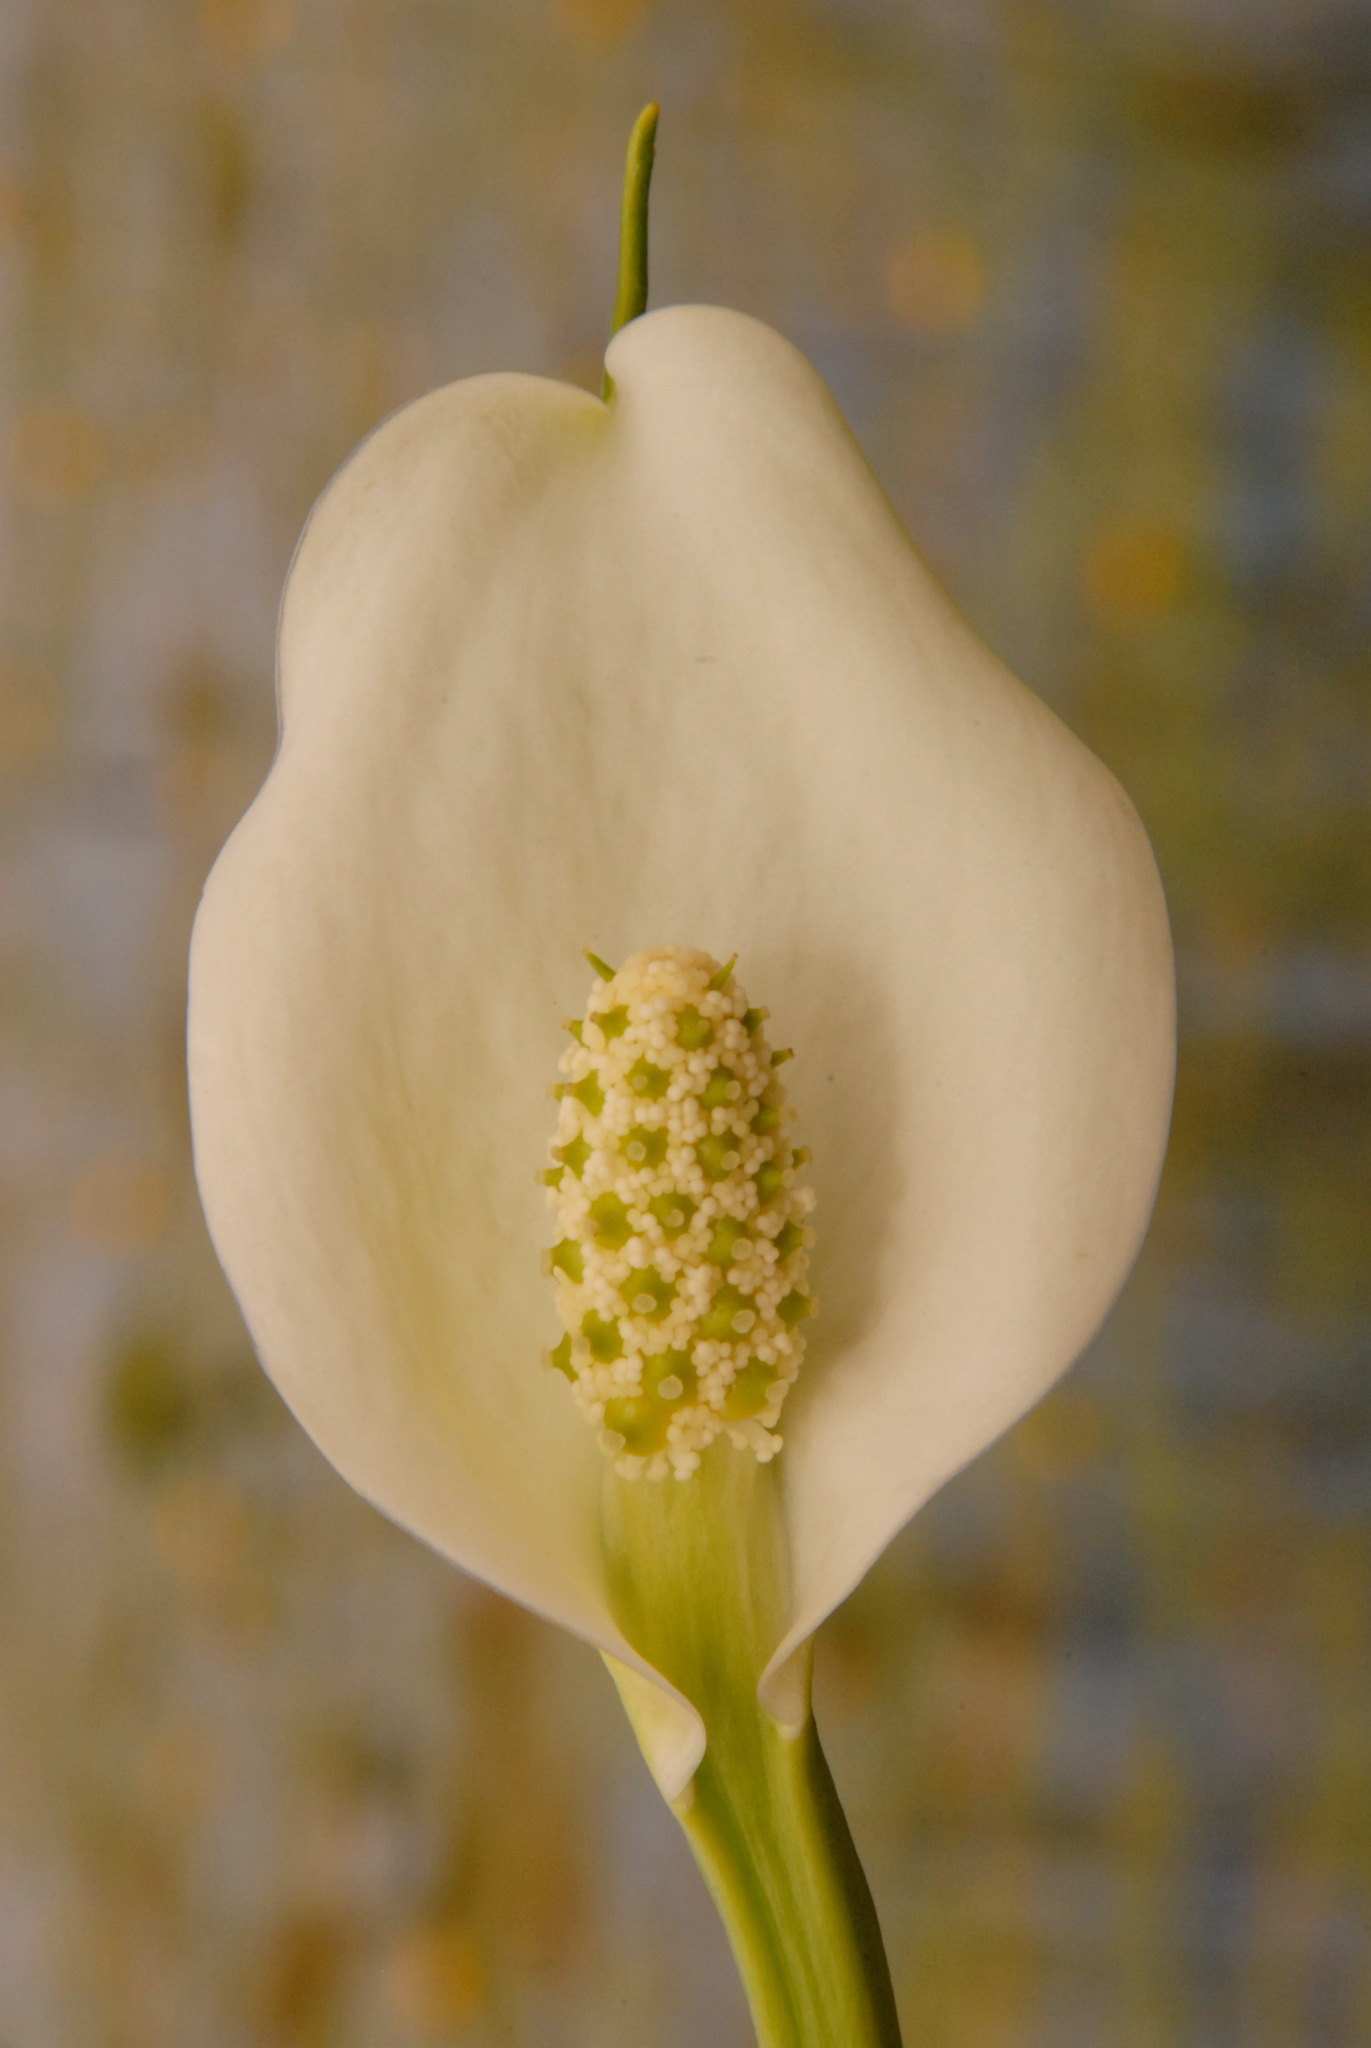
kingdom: Plantae
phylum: Tracheophyta
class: Liliopsida
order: Alismatales
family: Araceae
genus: Calla
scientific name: Calla palustris
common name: Bog arum
